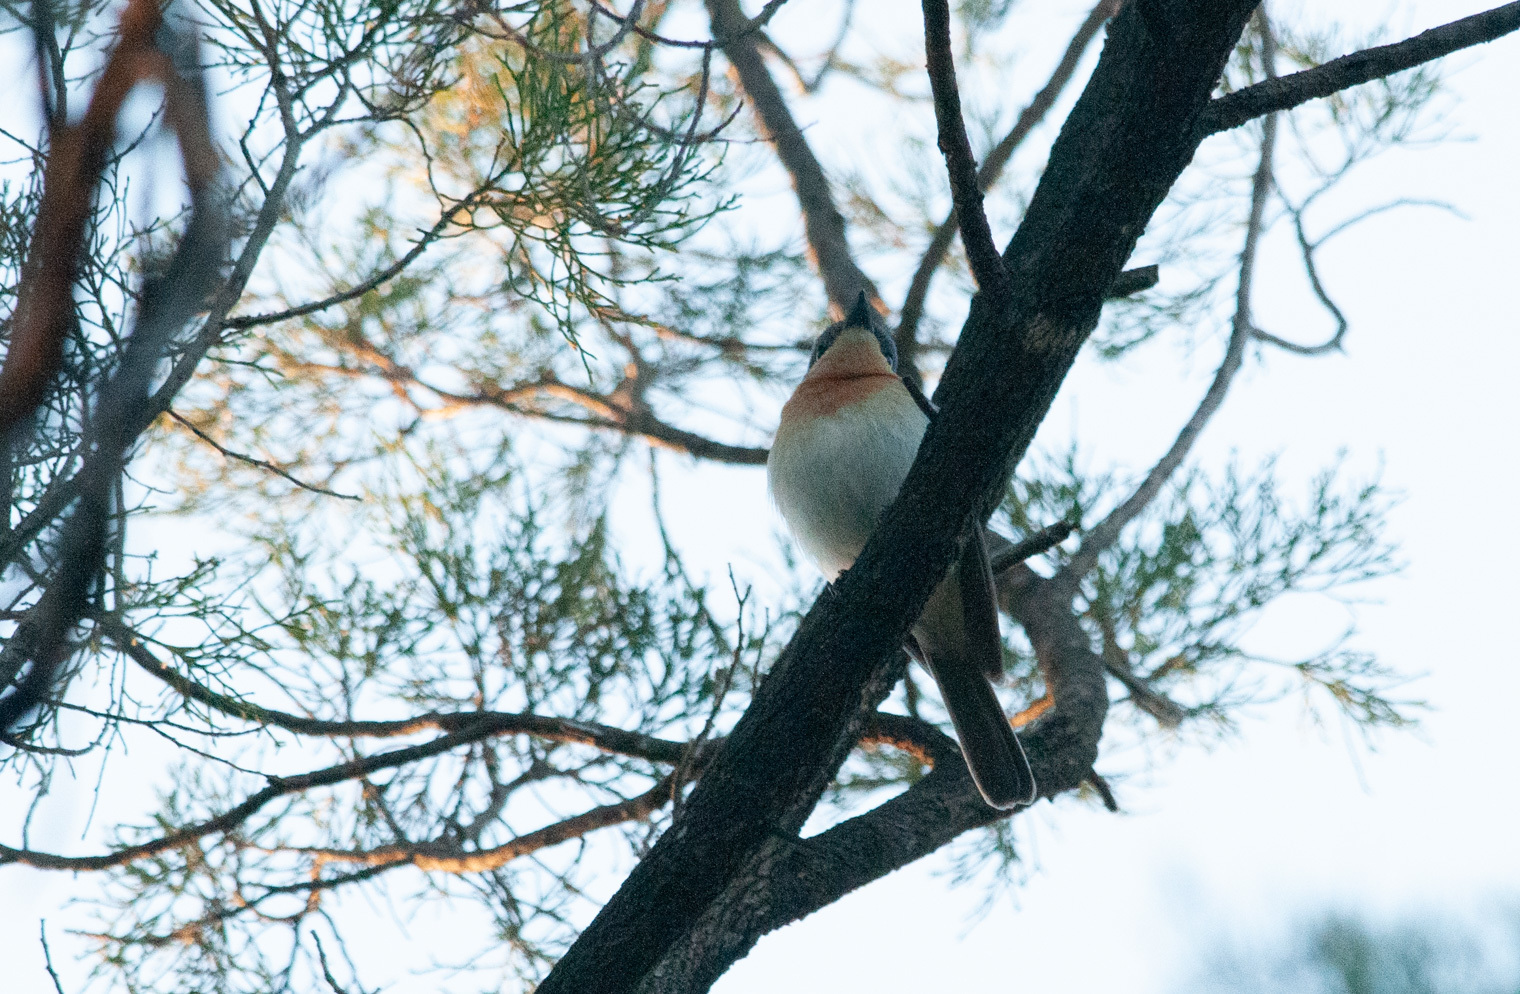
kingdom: Animalia
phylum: Chordata
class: Aves
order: Passeriformes
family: Monarchidae
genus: Myiagra
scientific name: Myiagra rubecula
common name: Leaden flycatcher
